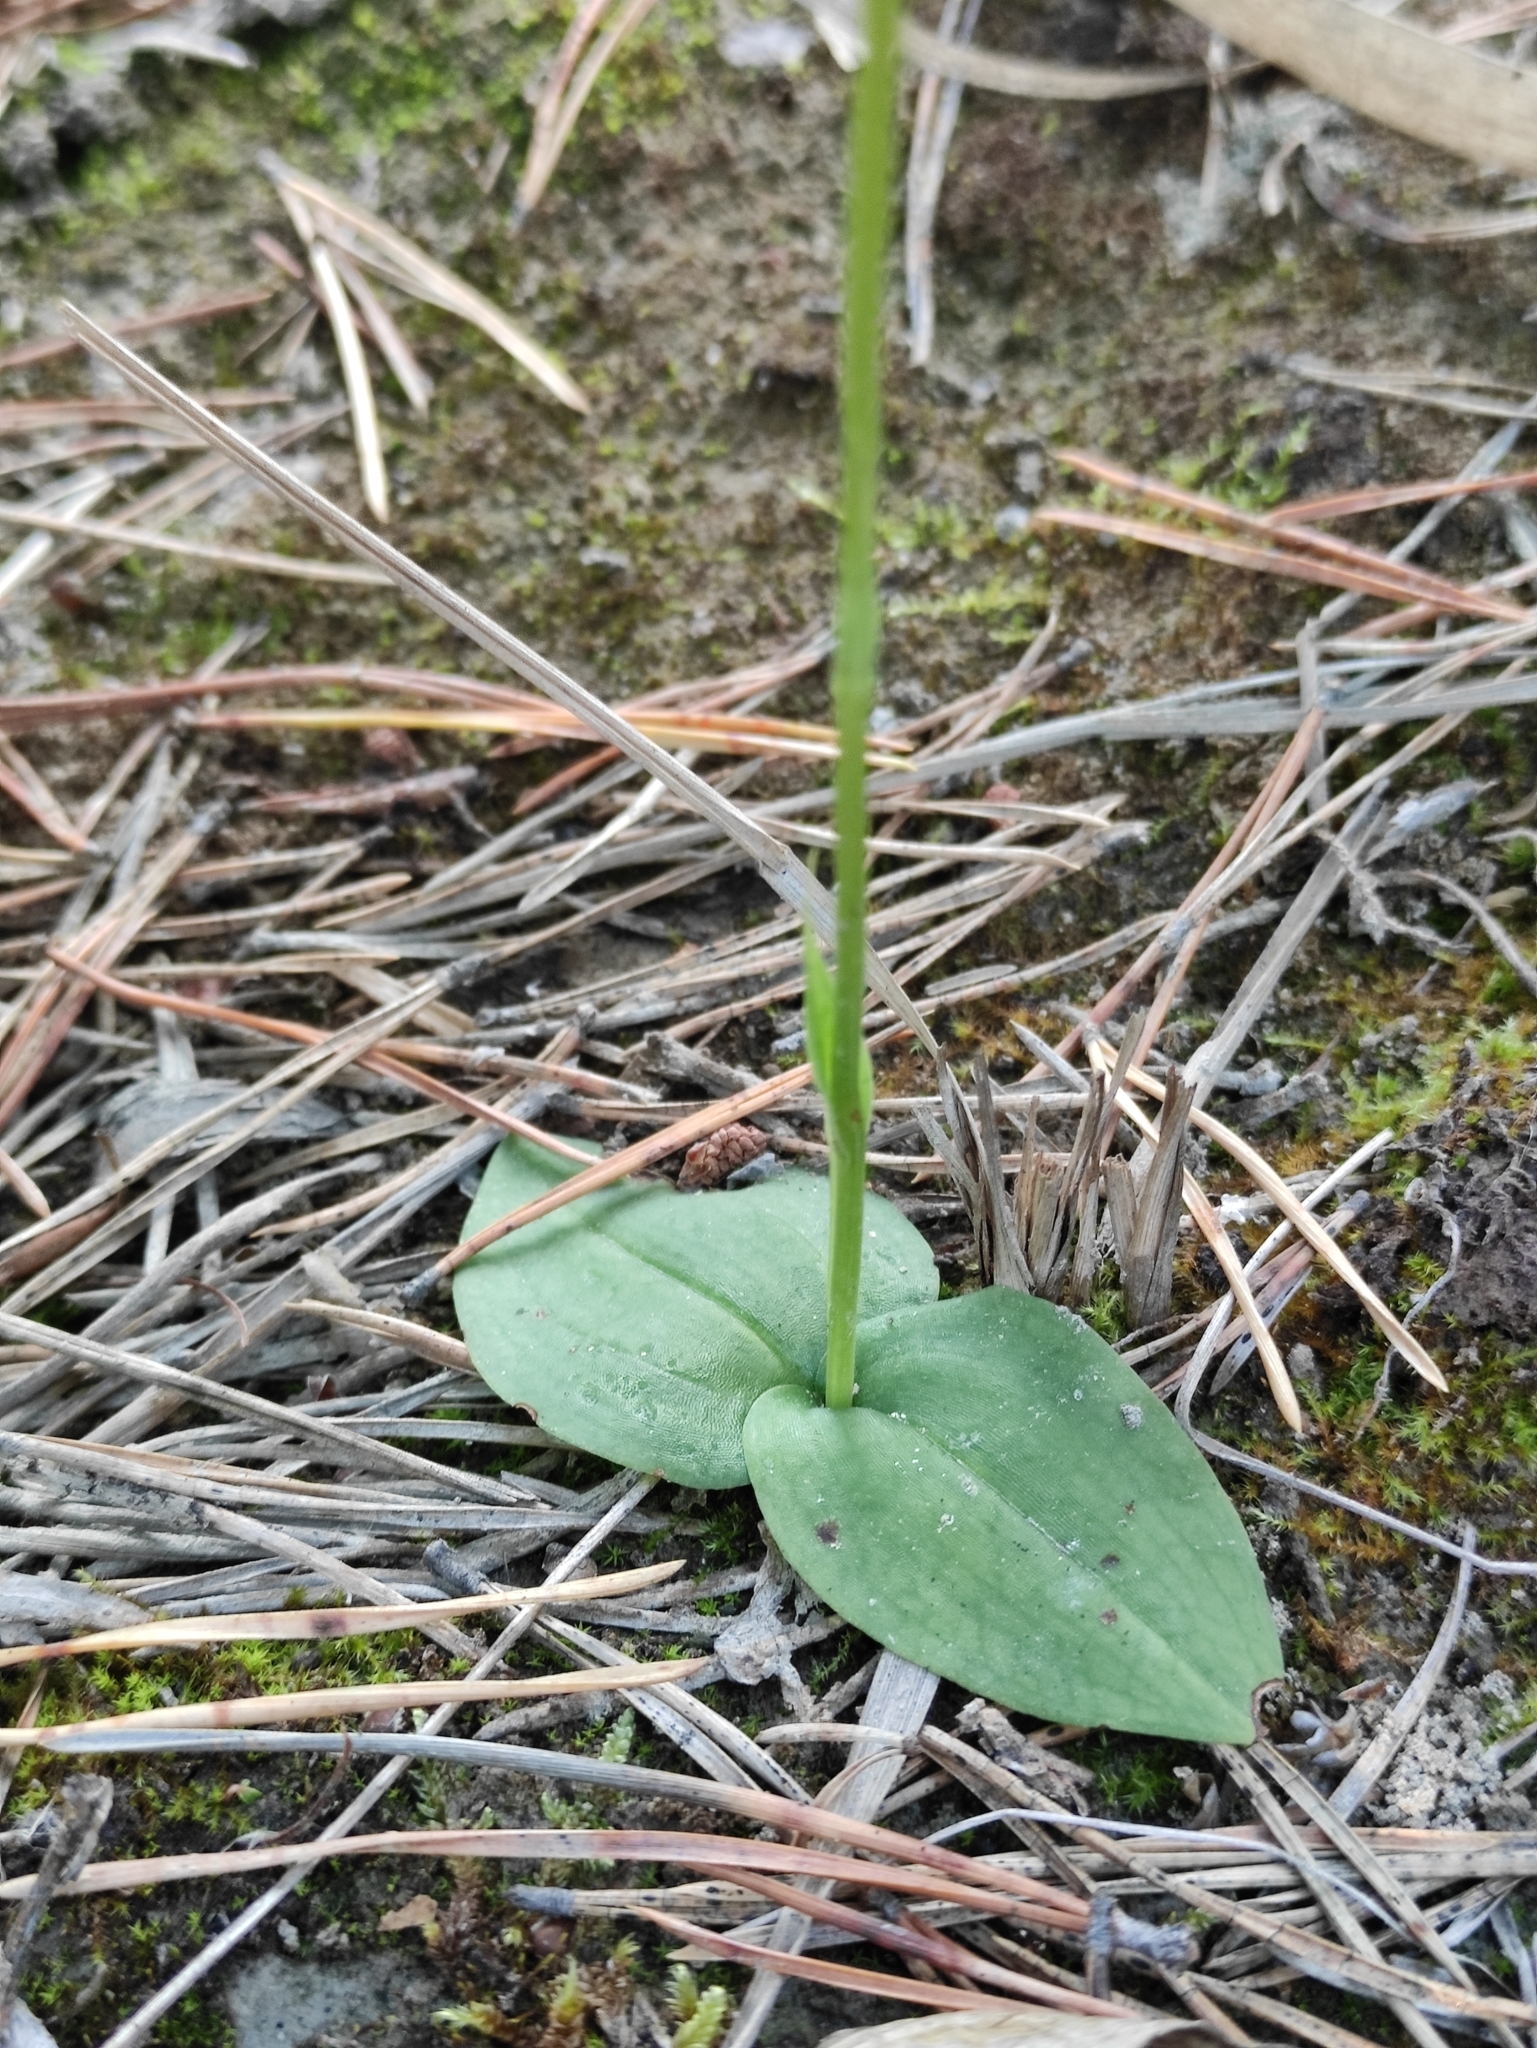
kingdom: Plantae
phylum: Tracheophyta
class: Liliopsida
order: Asparagales
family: Orchidaceae
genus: Hemipilia
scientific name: Hemipilia cucullata
